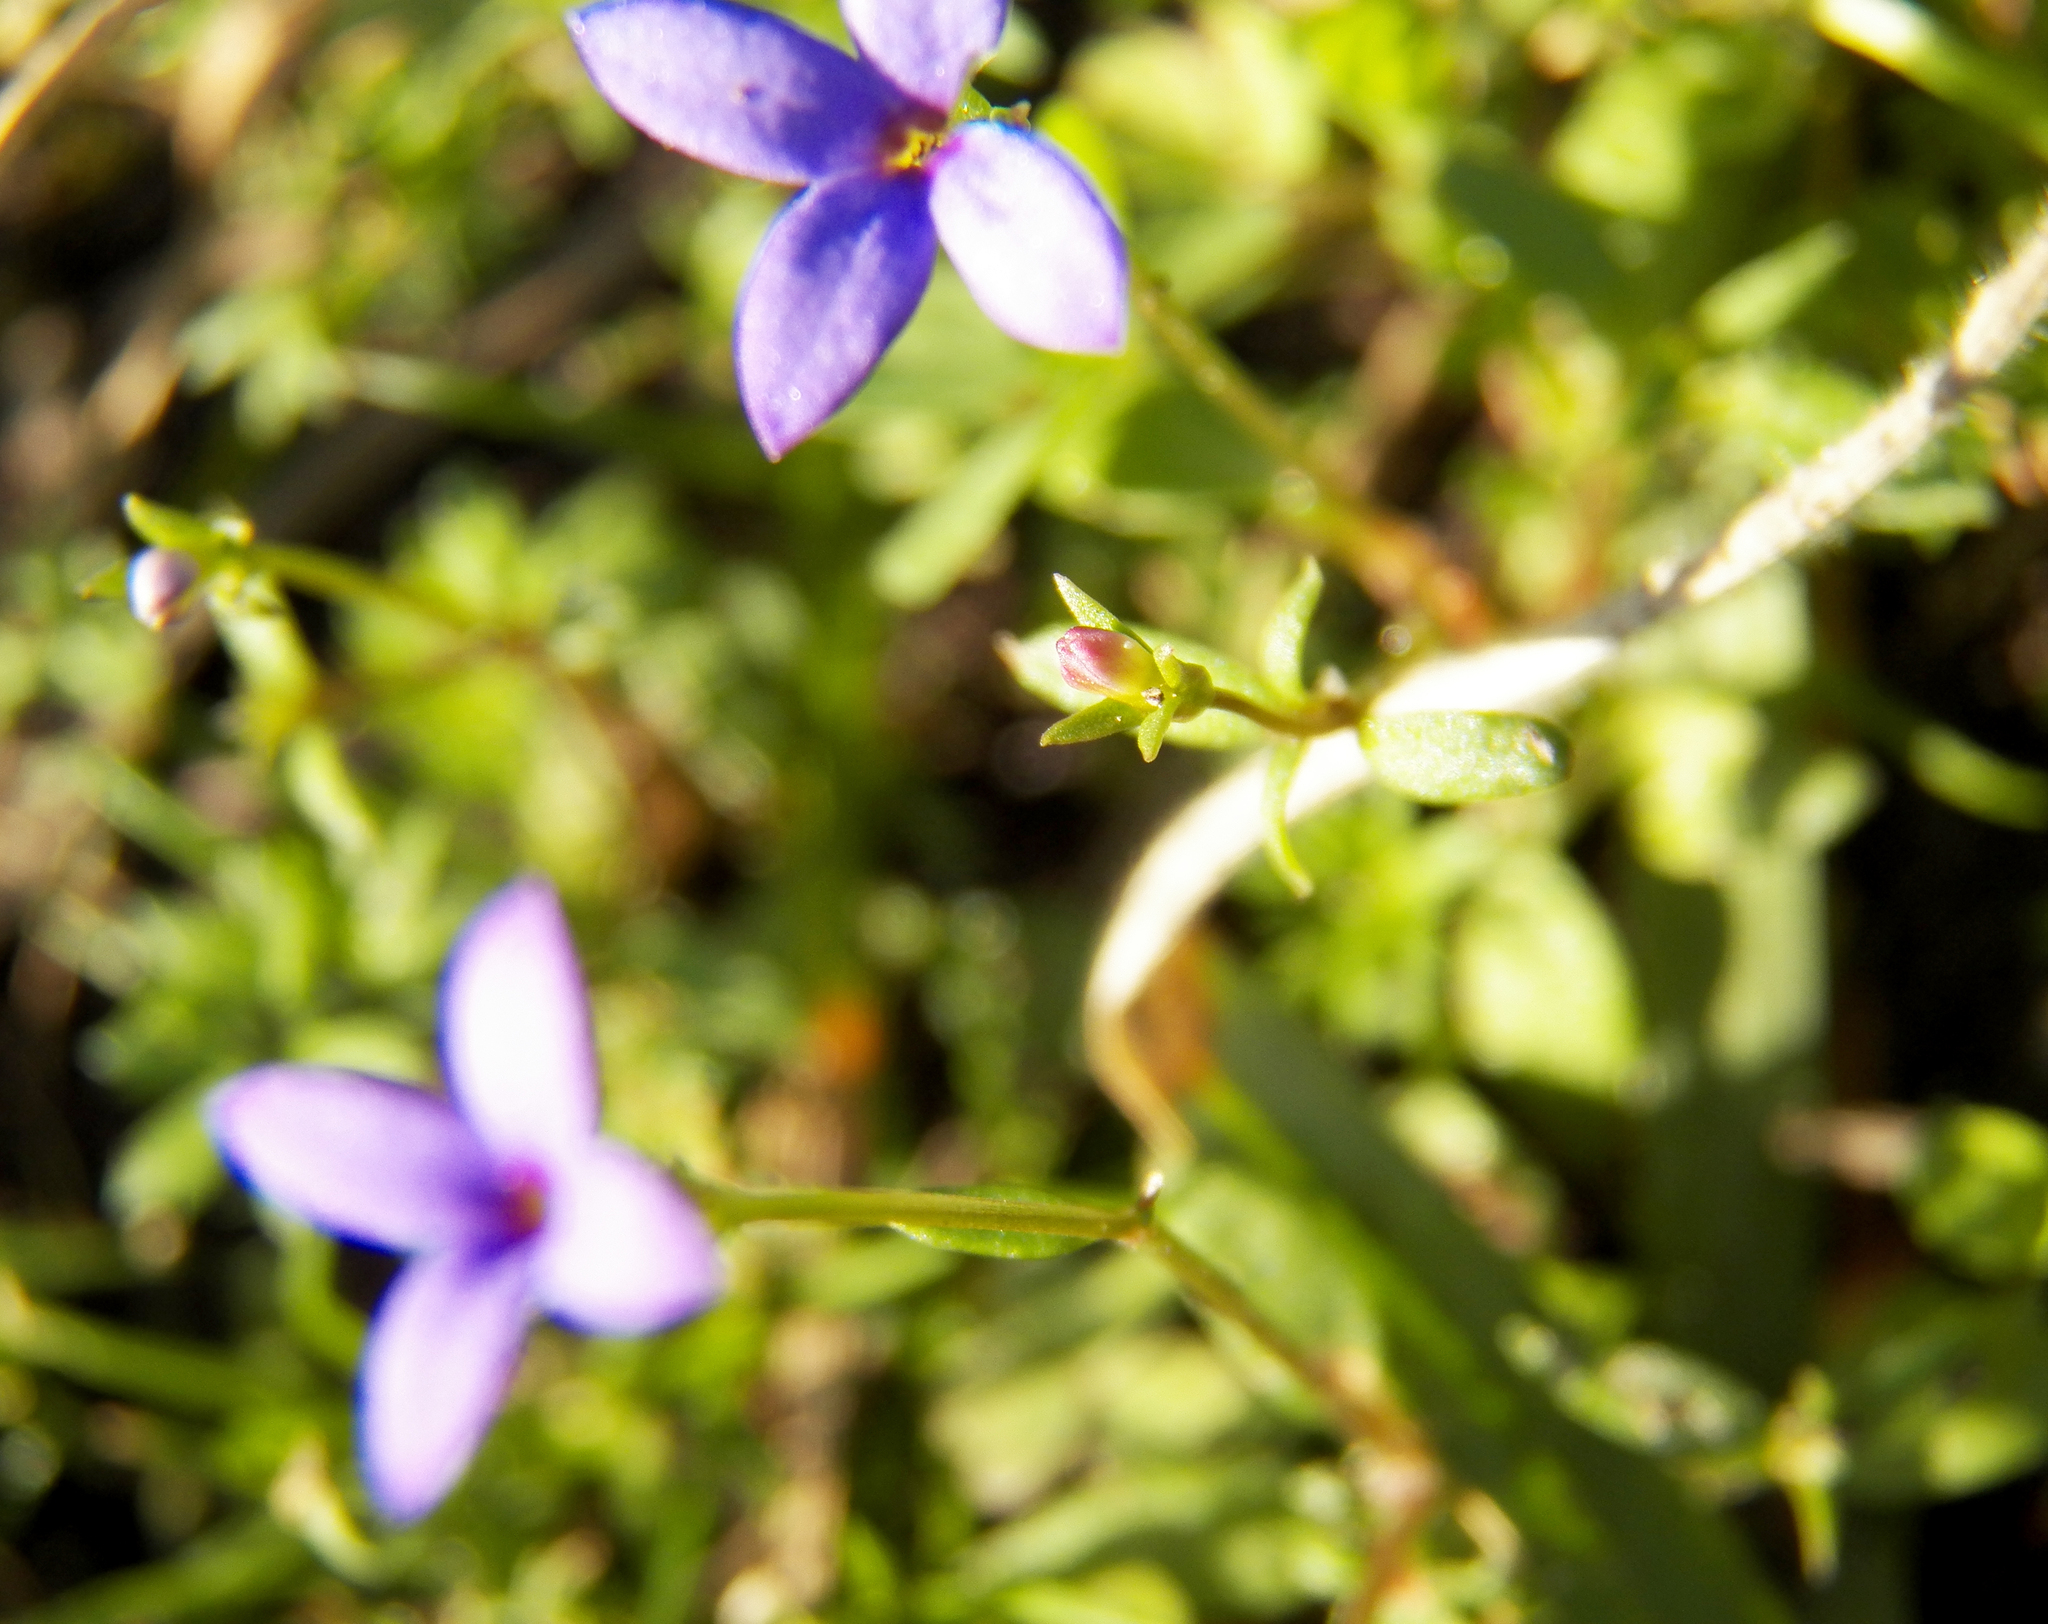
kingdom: Plantae
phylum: Tracheophyta
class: Magnoliopsida
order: Gentianales
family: Rubiaceae
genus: Houstonia
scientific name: Houstonia pusilla
